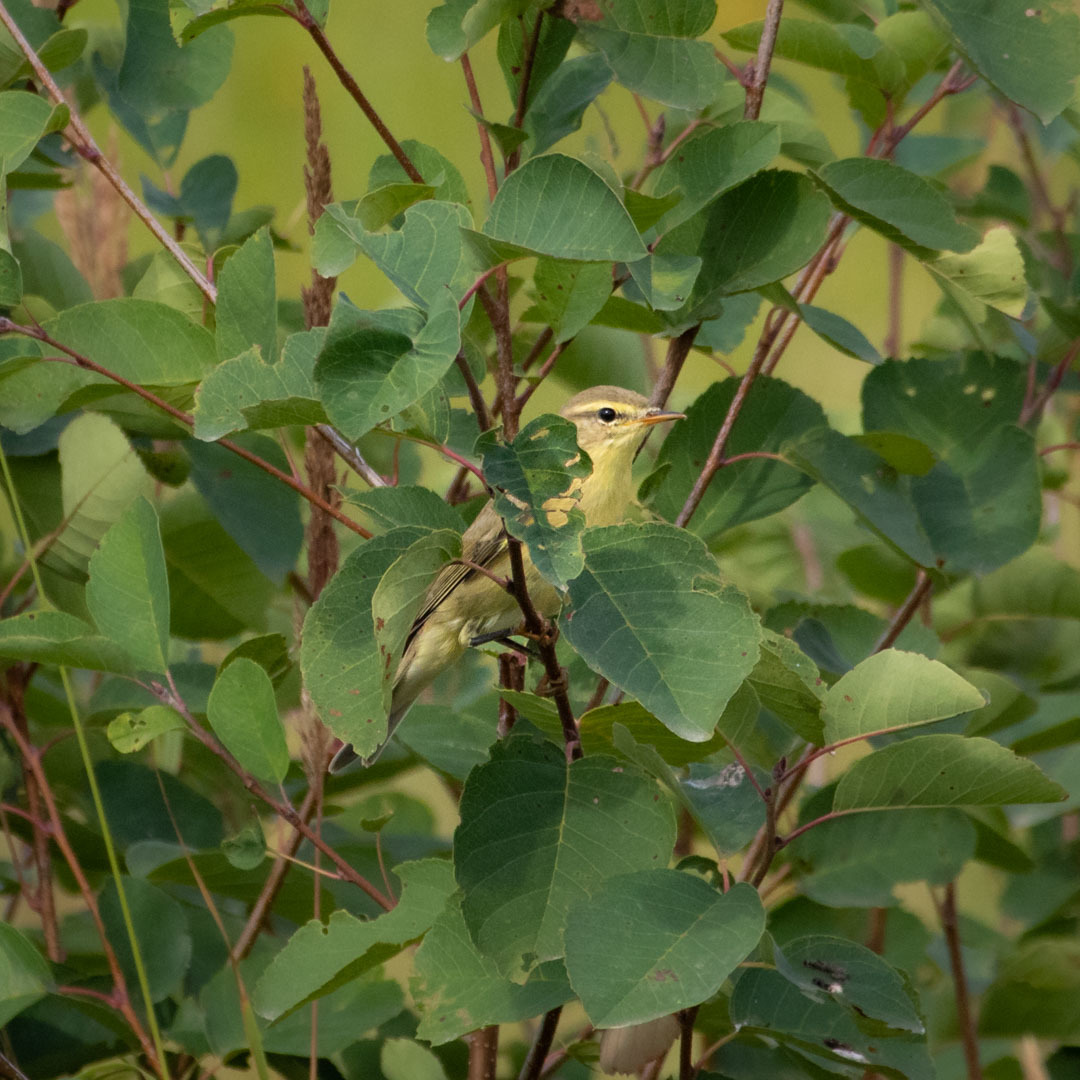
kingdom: Animalia
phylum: Chordata
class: Aves
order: Passeriformes
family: Phylloscopidae
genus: Phylloscopus
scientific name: Phylloscopus trochilus
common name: Willow warbler
